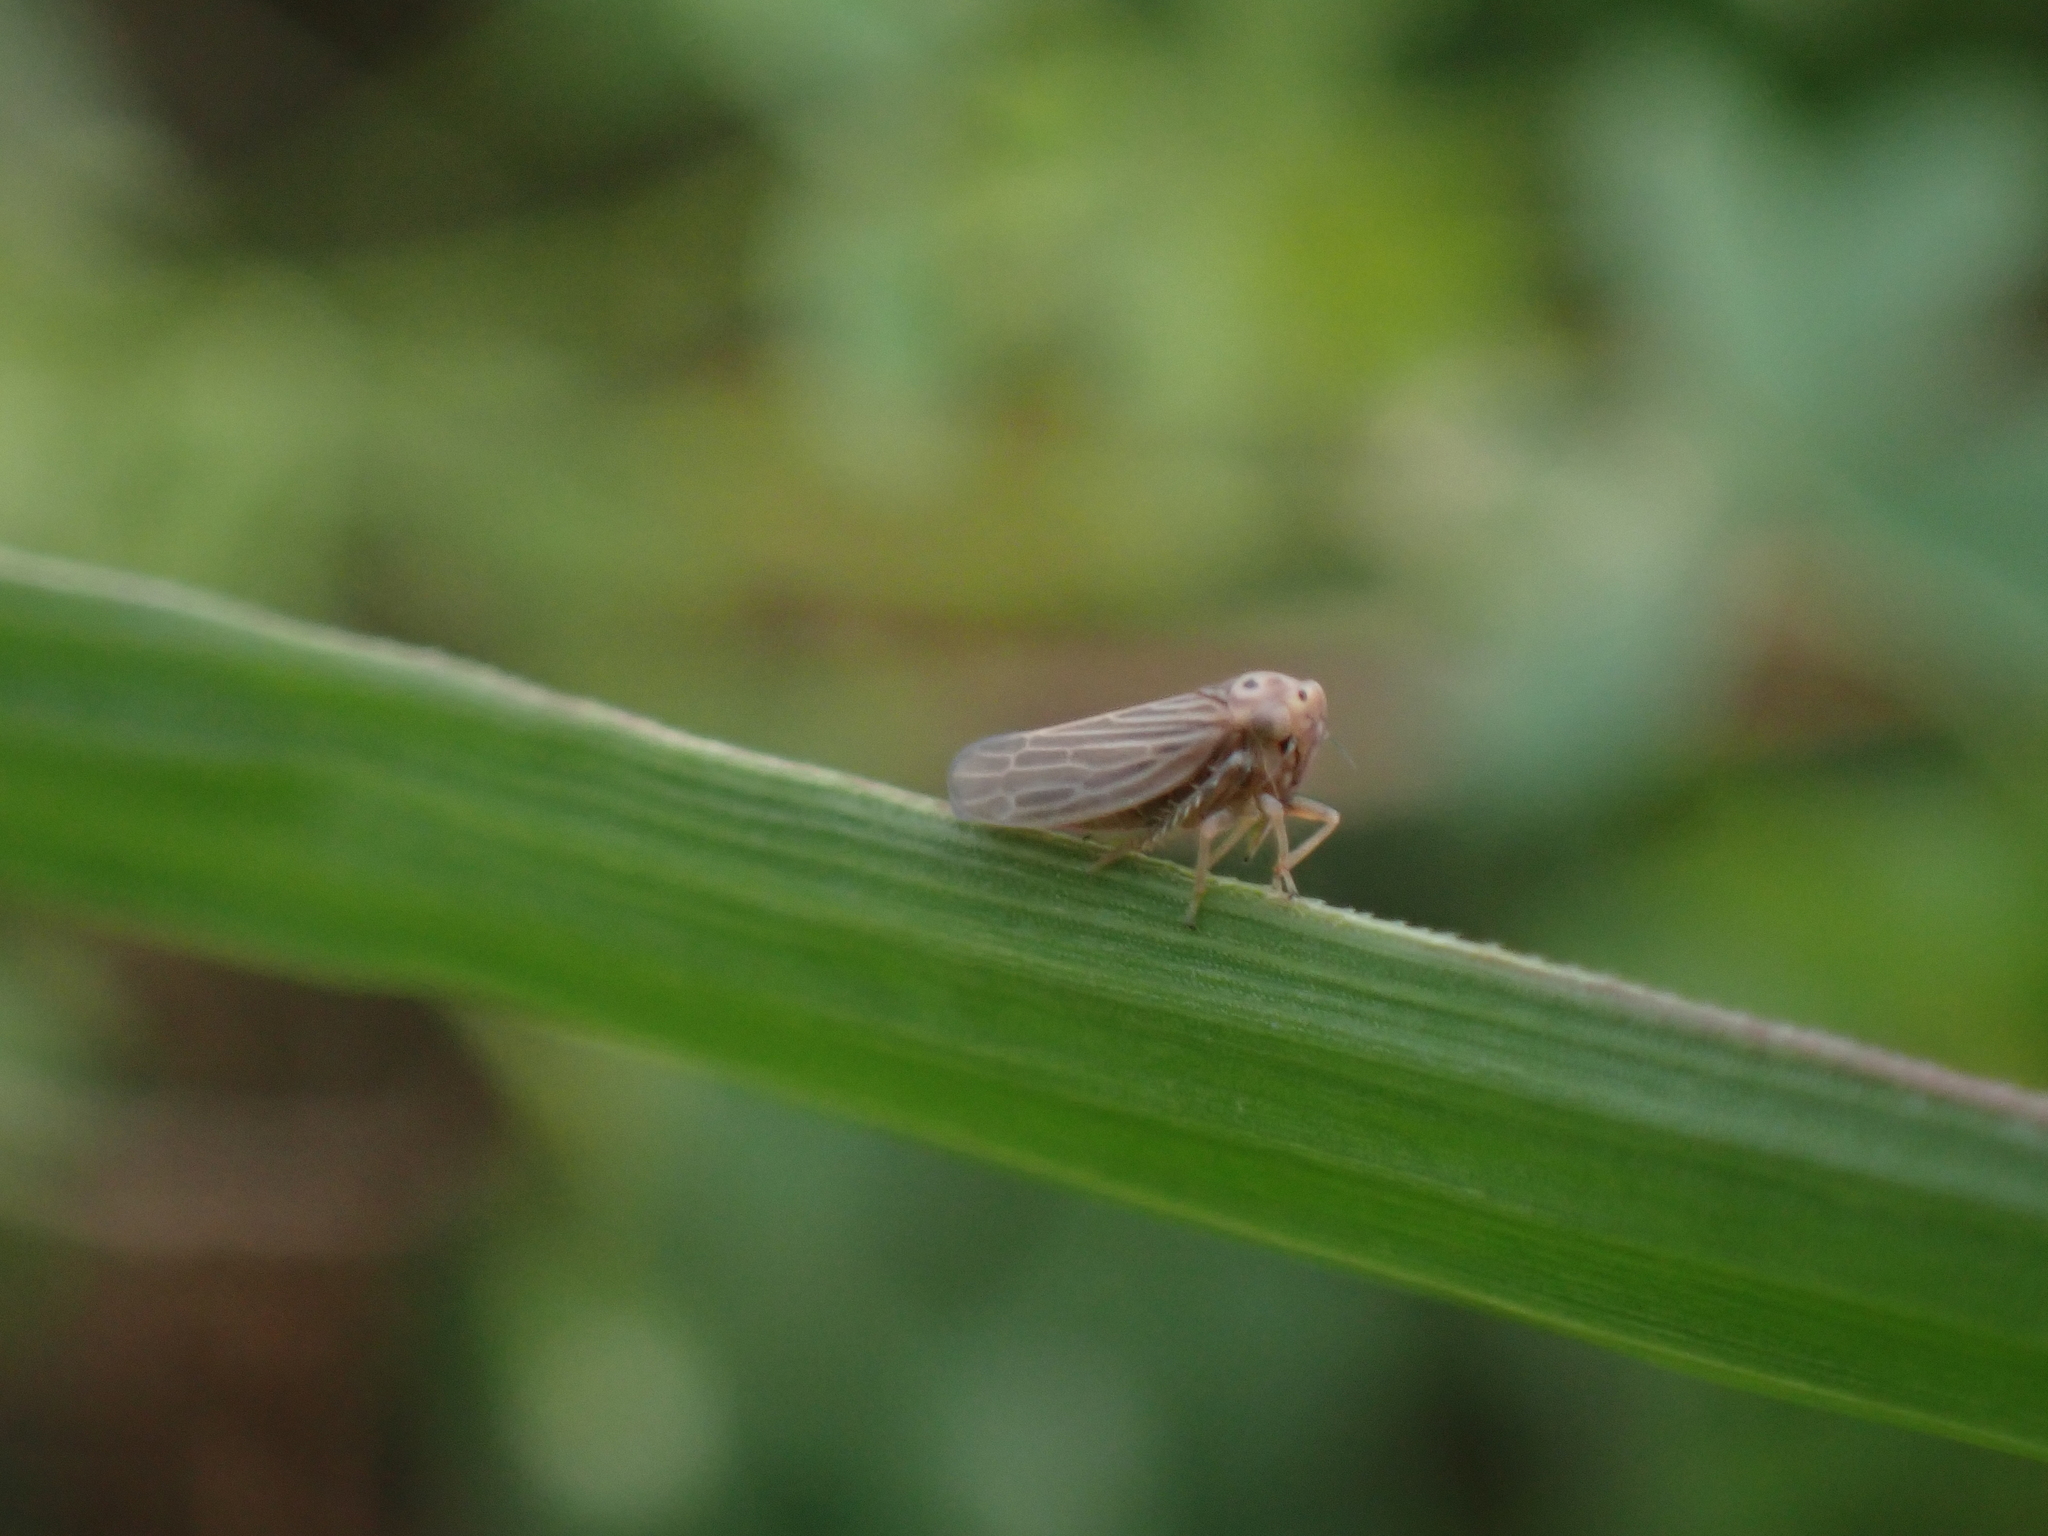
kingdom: Animalia
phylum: Arthropoda
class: Insecta
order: Hemiptera
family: Cicadellidae
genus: Agallia
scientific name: Agallia constricta
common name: The constricted leafhopper
